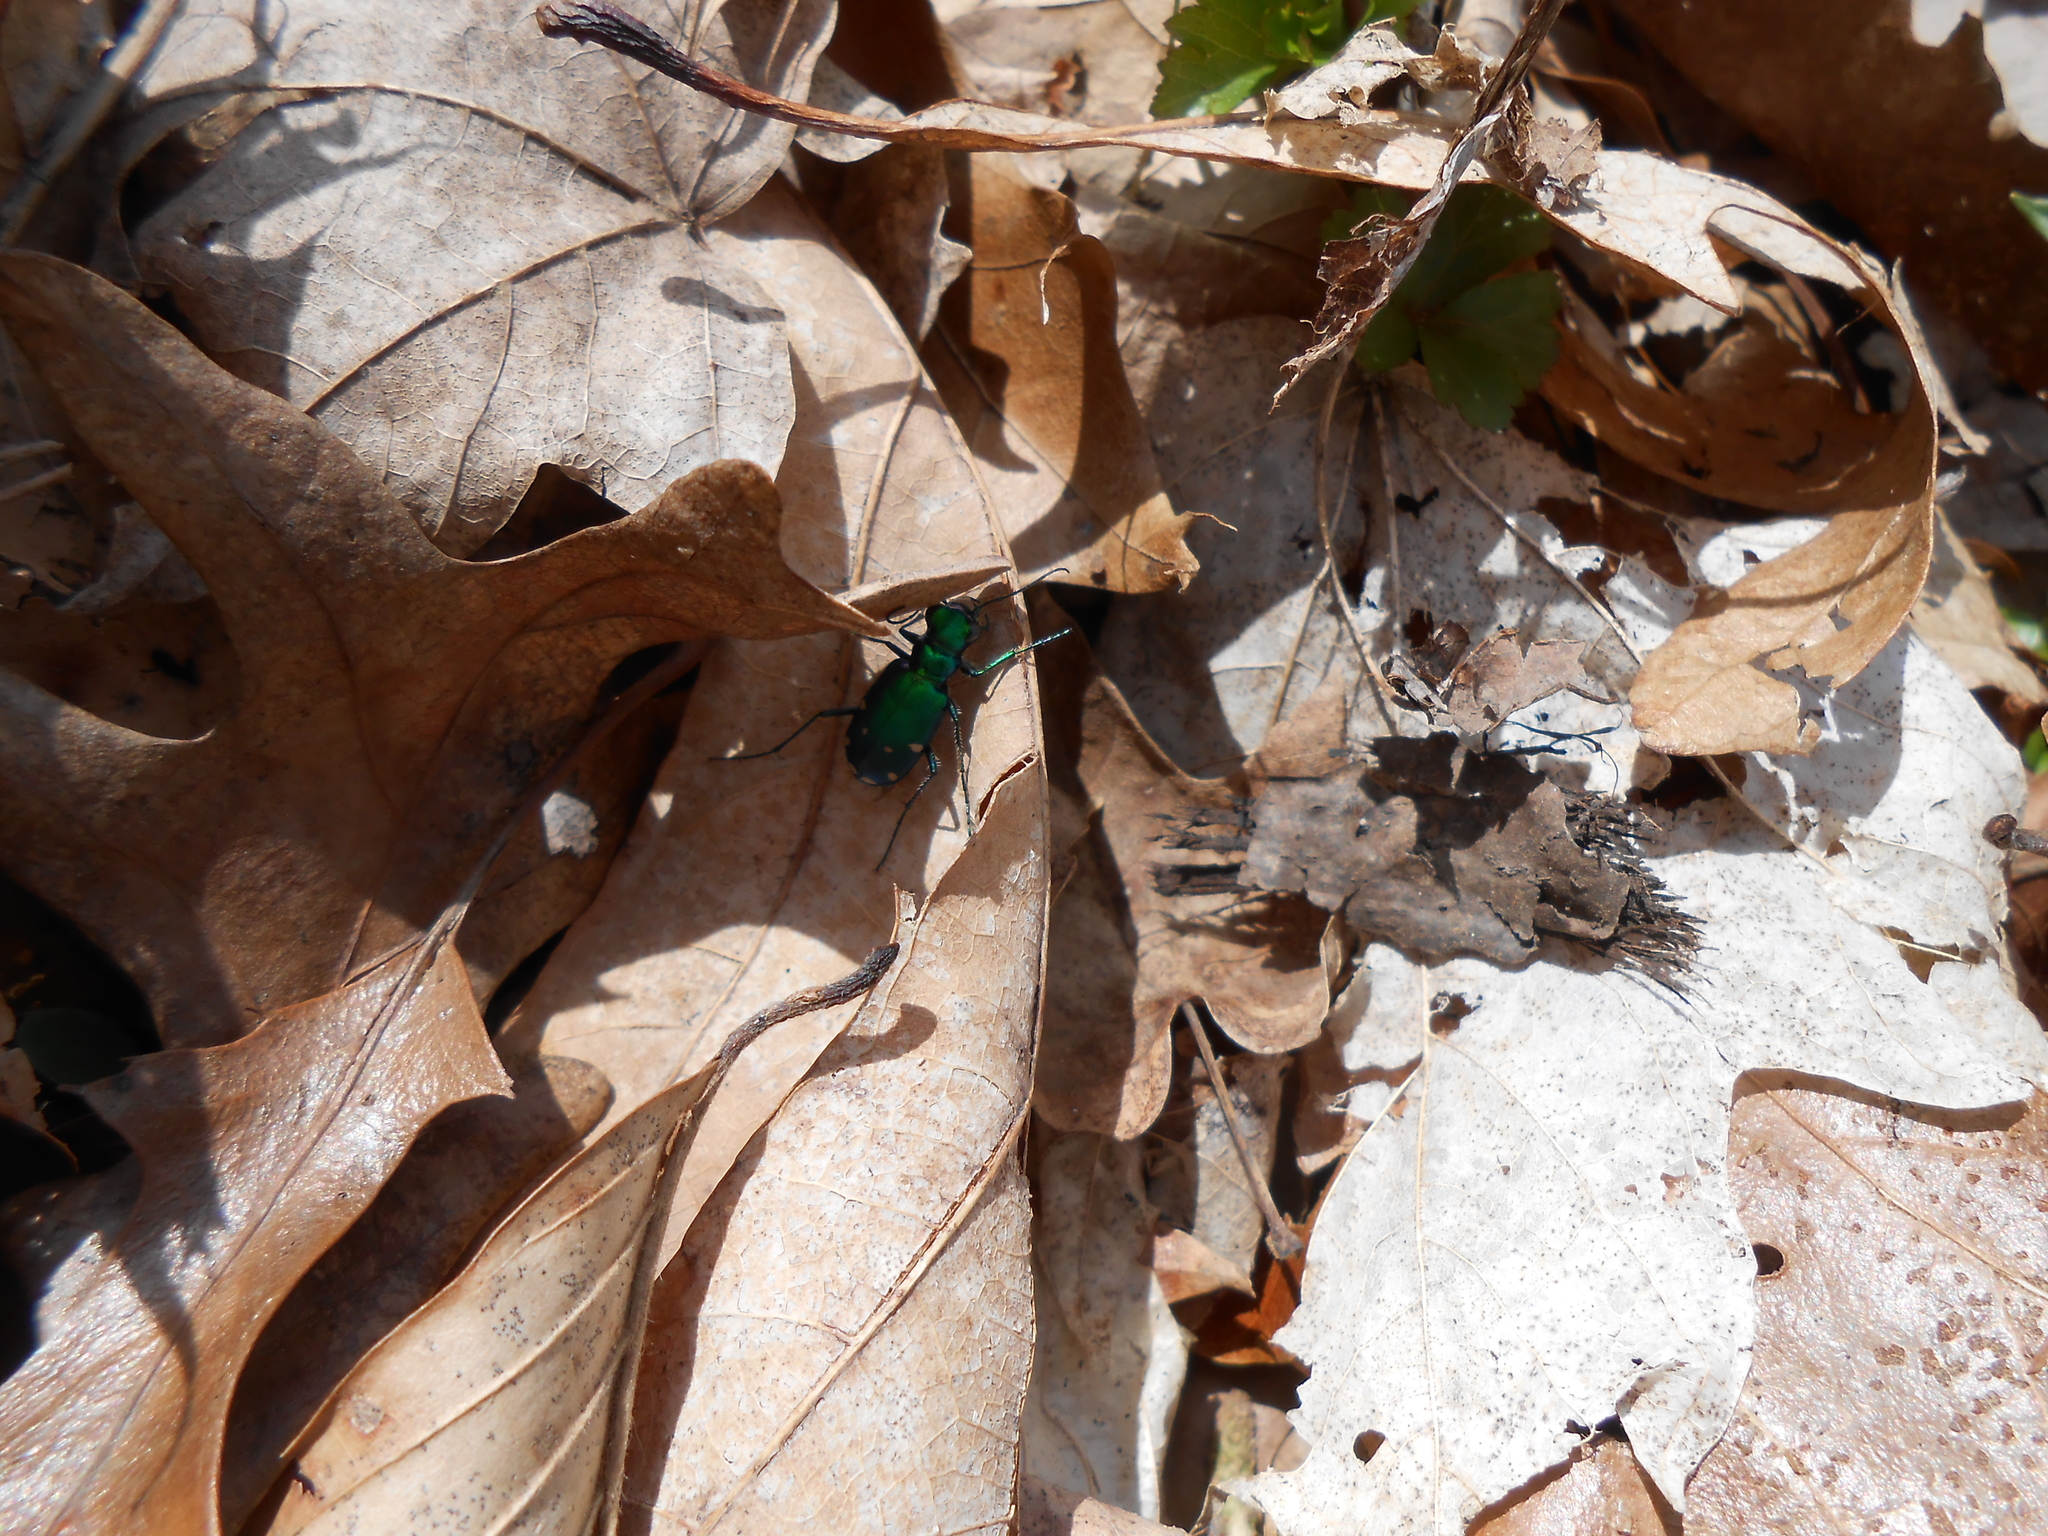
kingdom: Animalia
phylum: Arthropoda
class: Insecta
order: Coleoptera
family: Carabidae
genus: Cicindela
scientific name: Cicindela sexguttata
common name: Six-spotted tiger beetle
